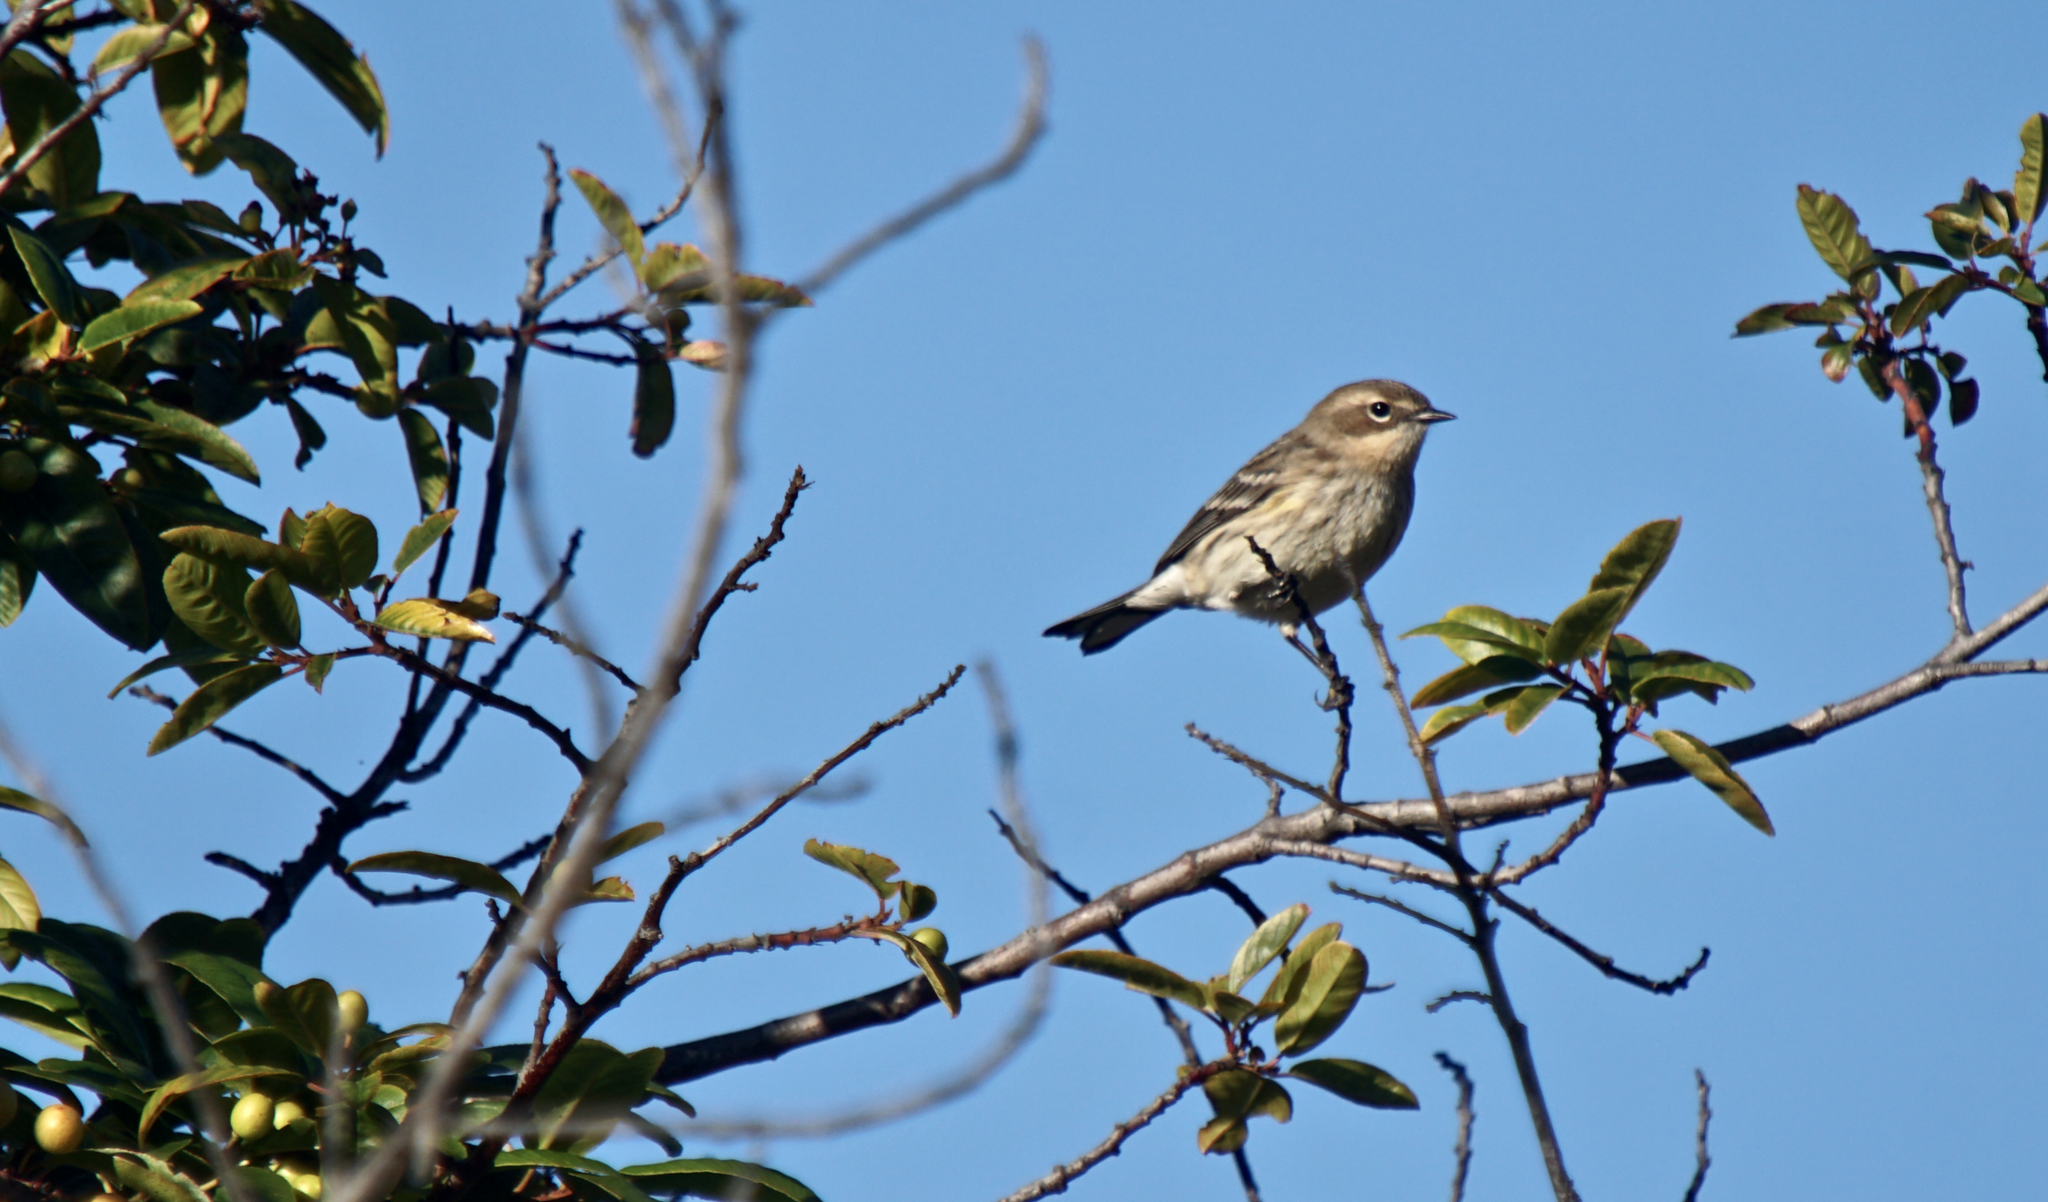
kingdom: Animalia
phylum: Chordata
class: Aves
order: Passeriformes
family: Parulidae
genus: Setophaga
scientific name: Setophaga coronata
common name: Myrtle warbler
